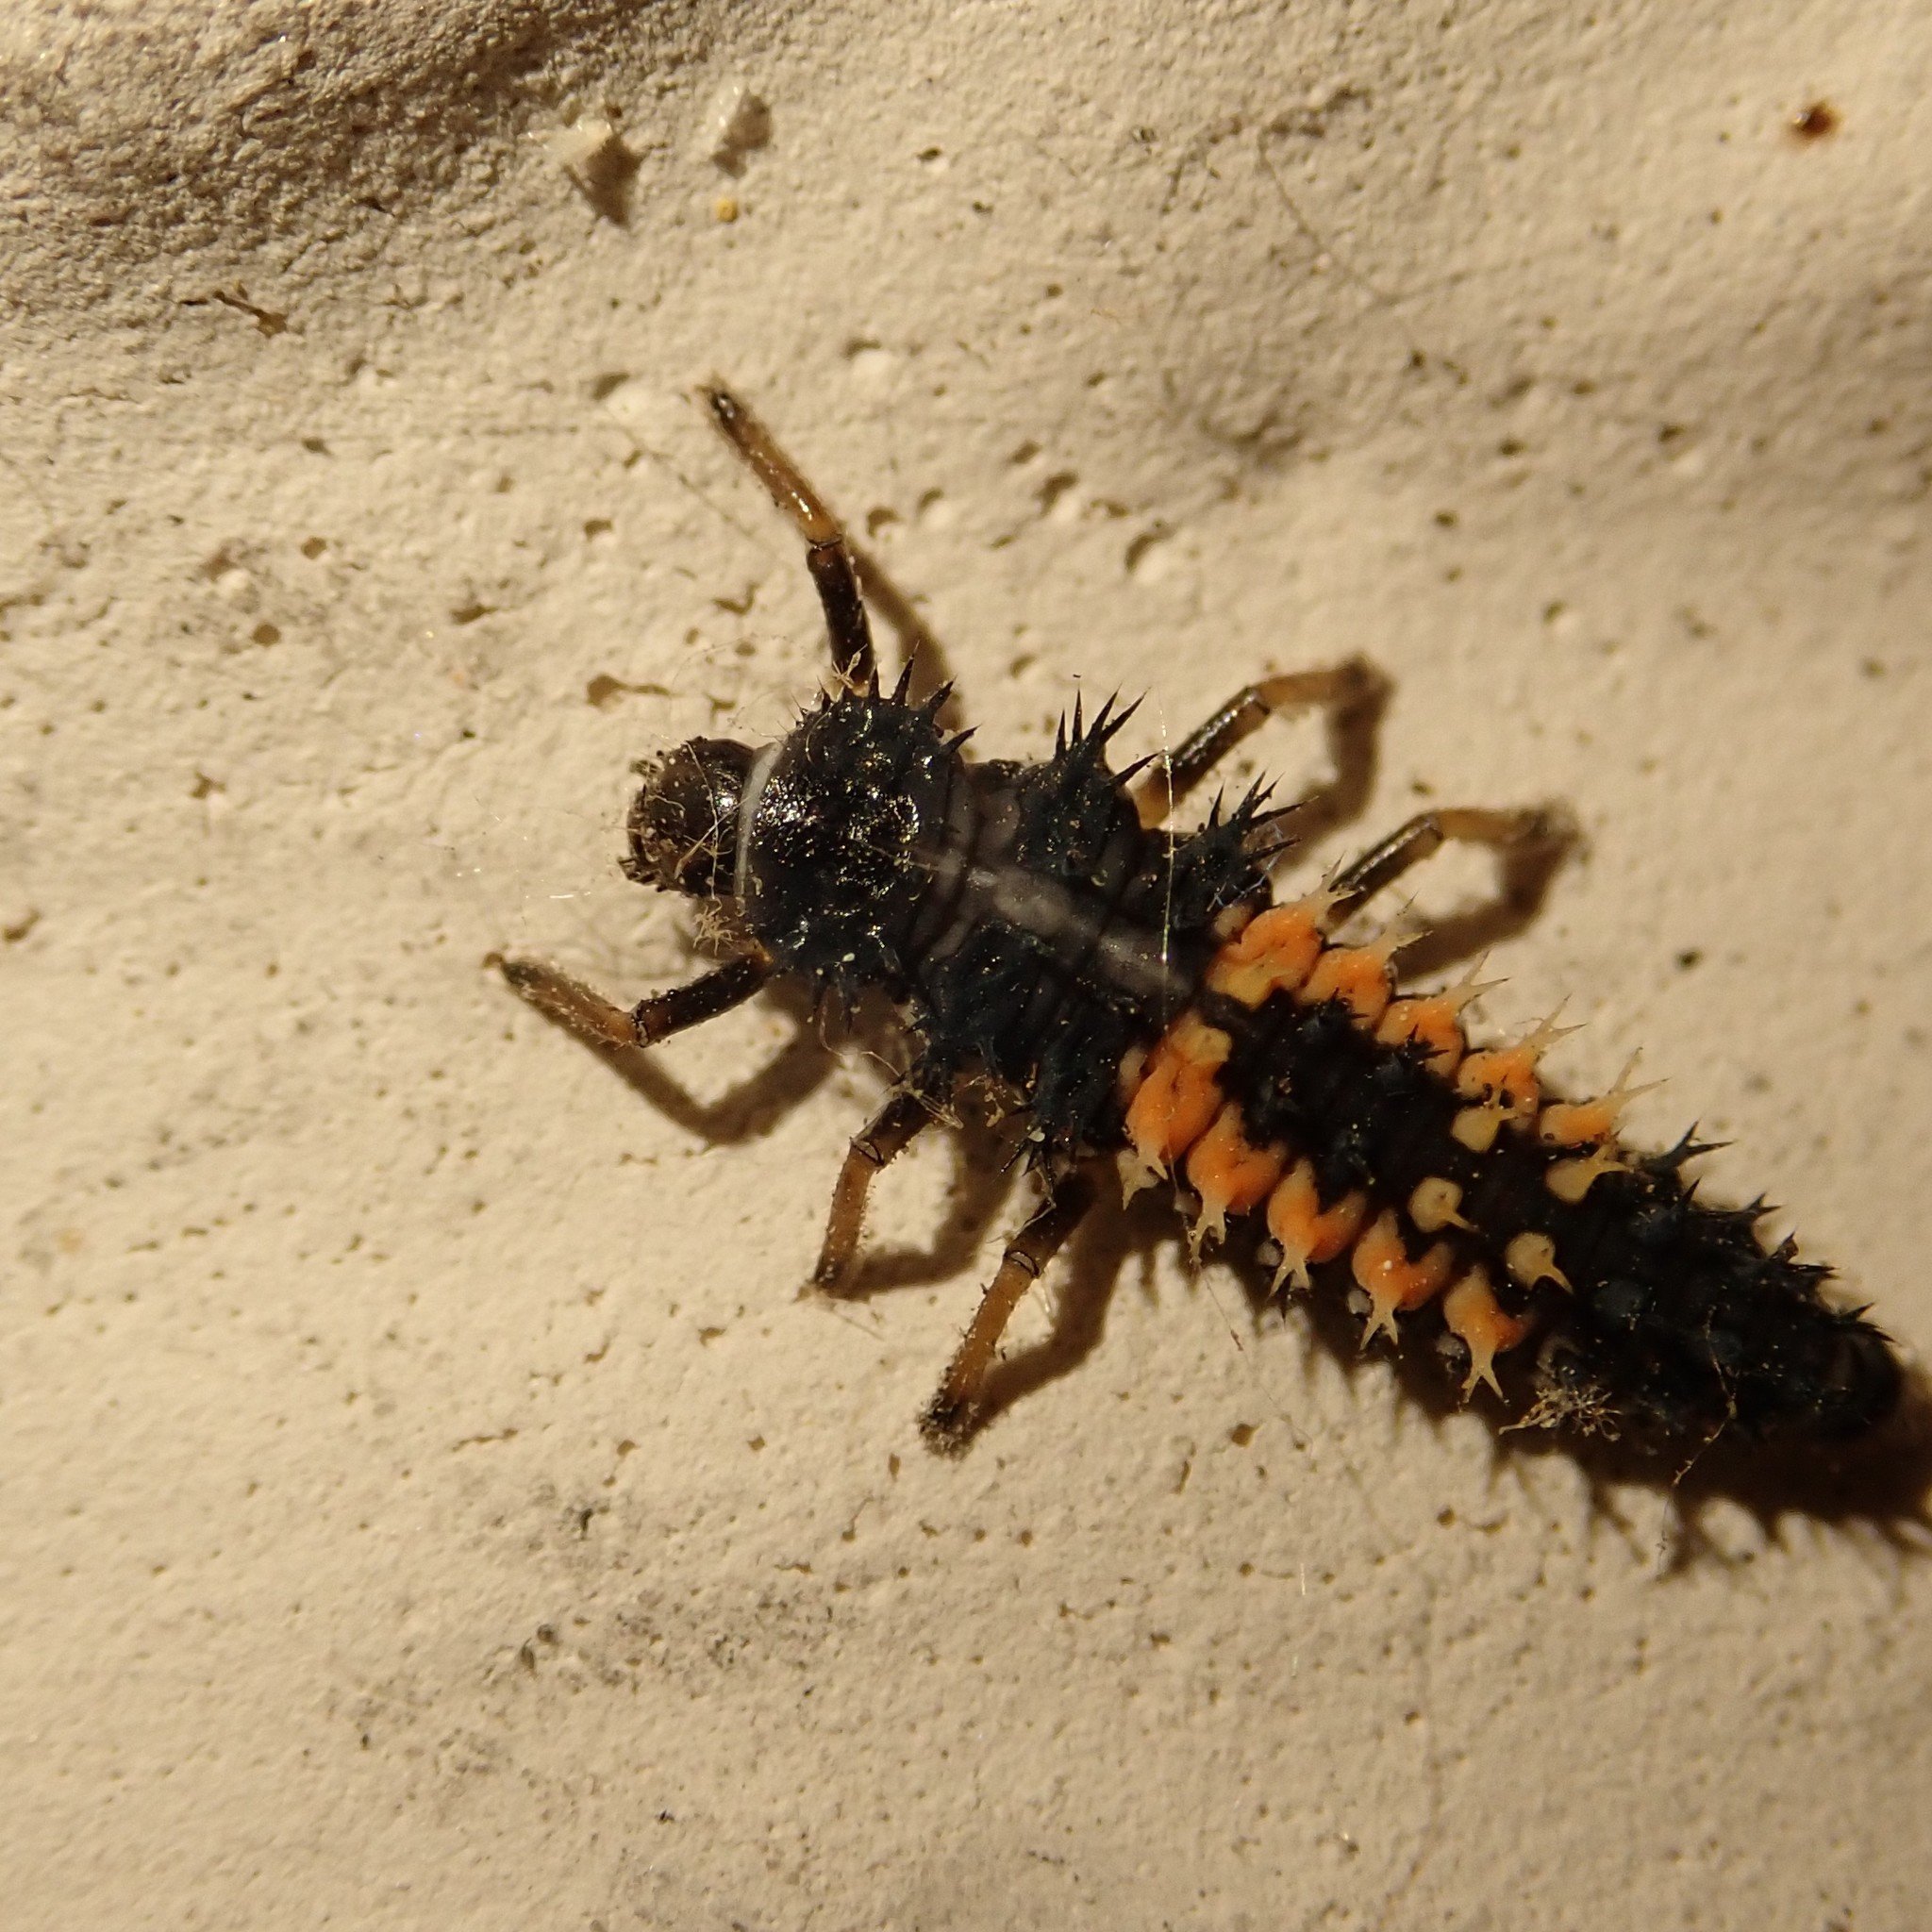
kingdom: Animalia
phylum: Arthropoda
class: Insecta
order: Coleoptera
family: Coccinellidae
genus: Harmonia
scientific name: Harmonia axyridis
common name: Harlequin ladybird
